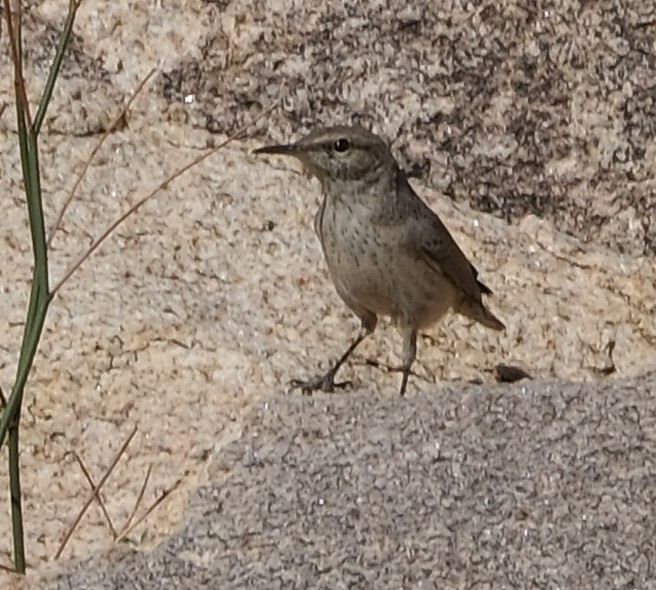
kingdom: Animalia
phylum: Chordata
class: Aves
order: Passeriformes
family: Troglodytidae
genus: Salpinctes
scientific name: Salpinctes obsoletus
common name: Rock wren
